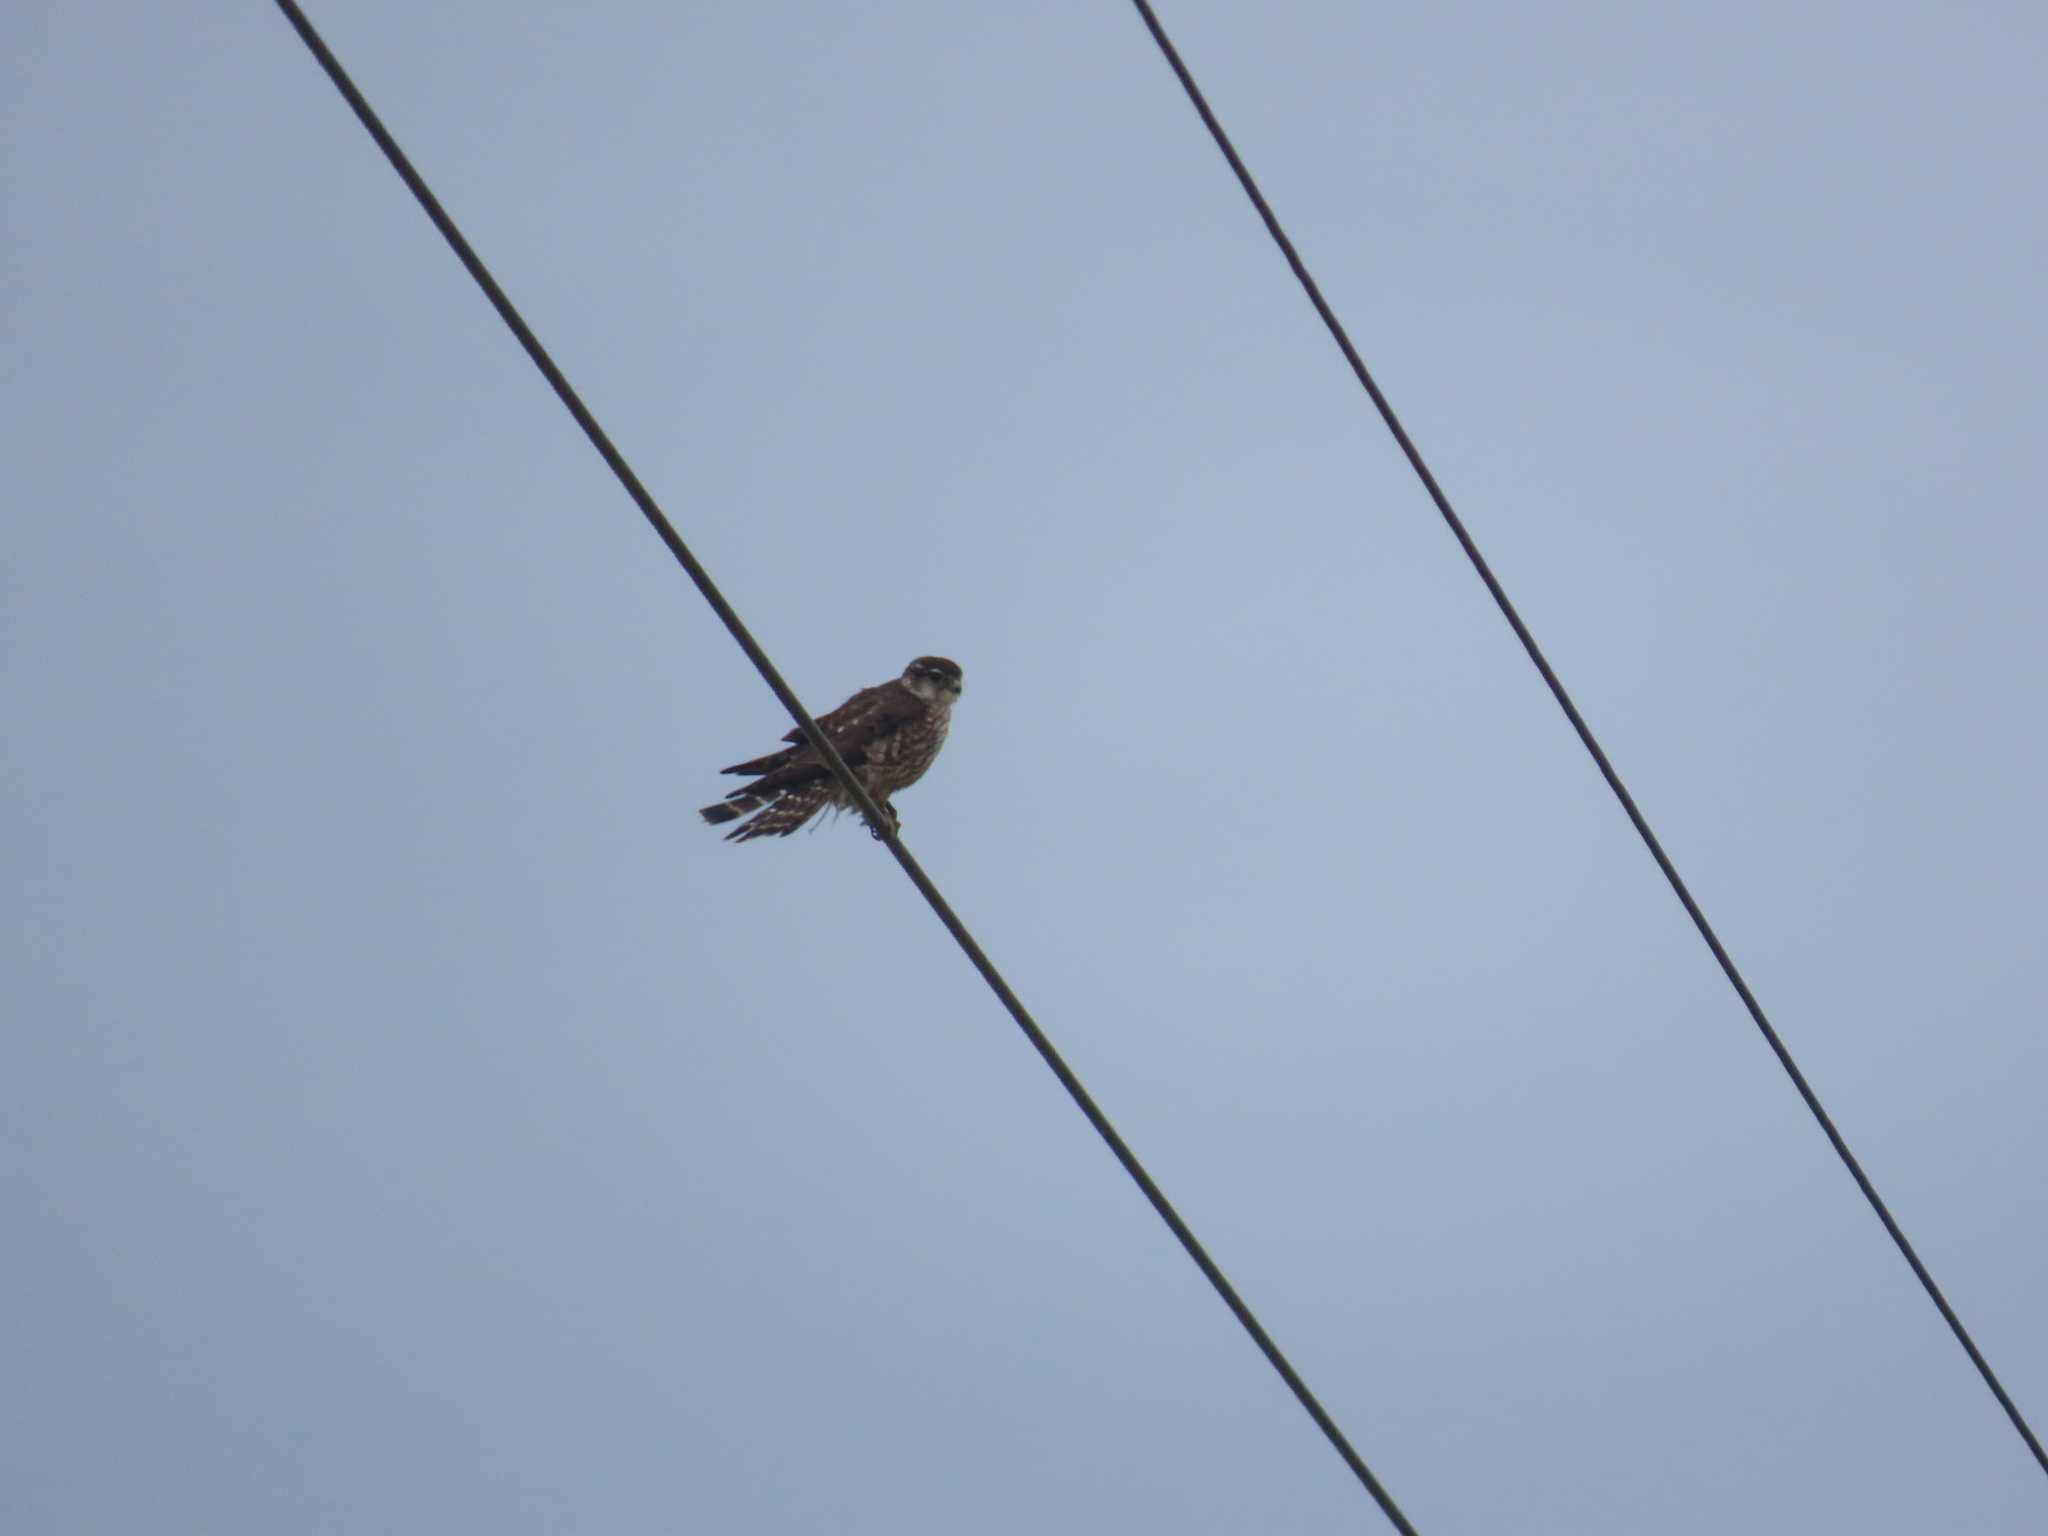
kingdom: Animalia
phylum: Chordata
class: Aves
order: Falconiformes
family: Falconidae
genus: Falco
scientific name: Falco columbarius
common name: Merlin
